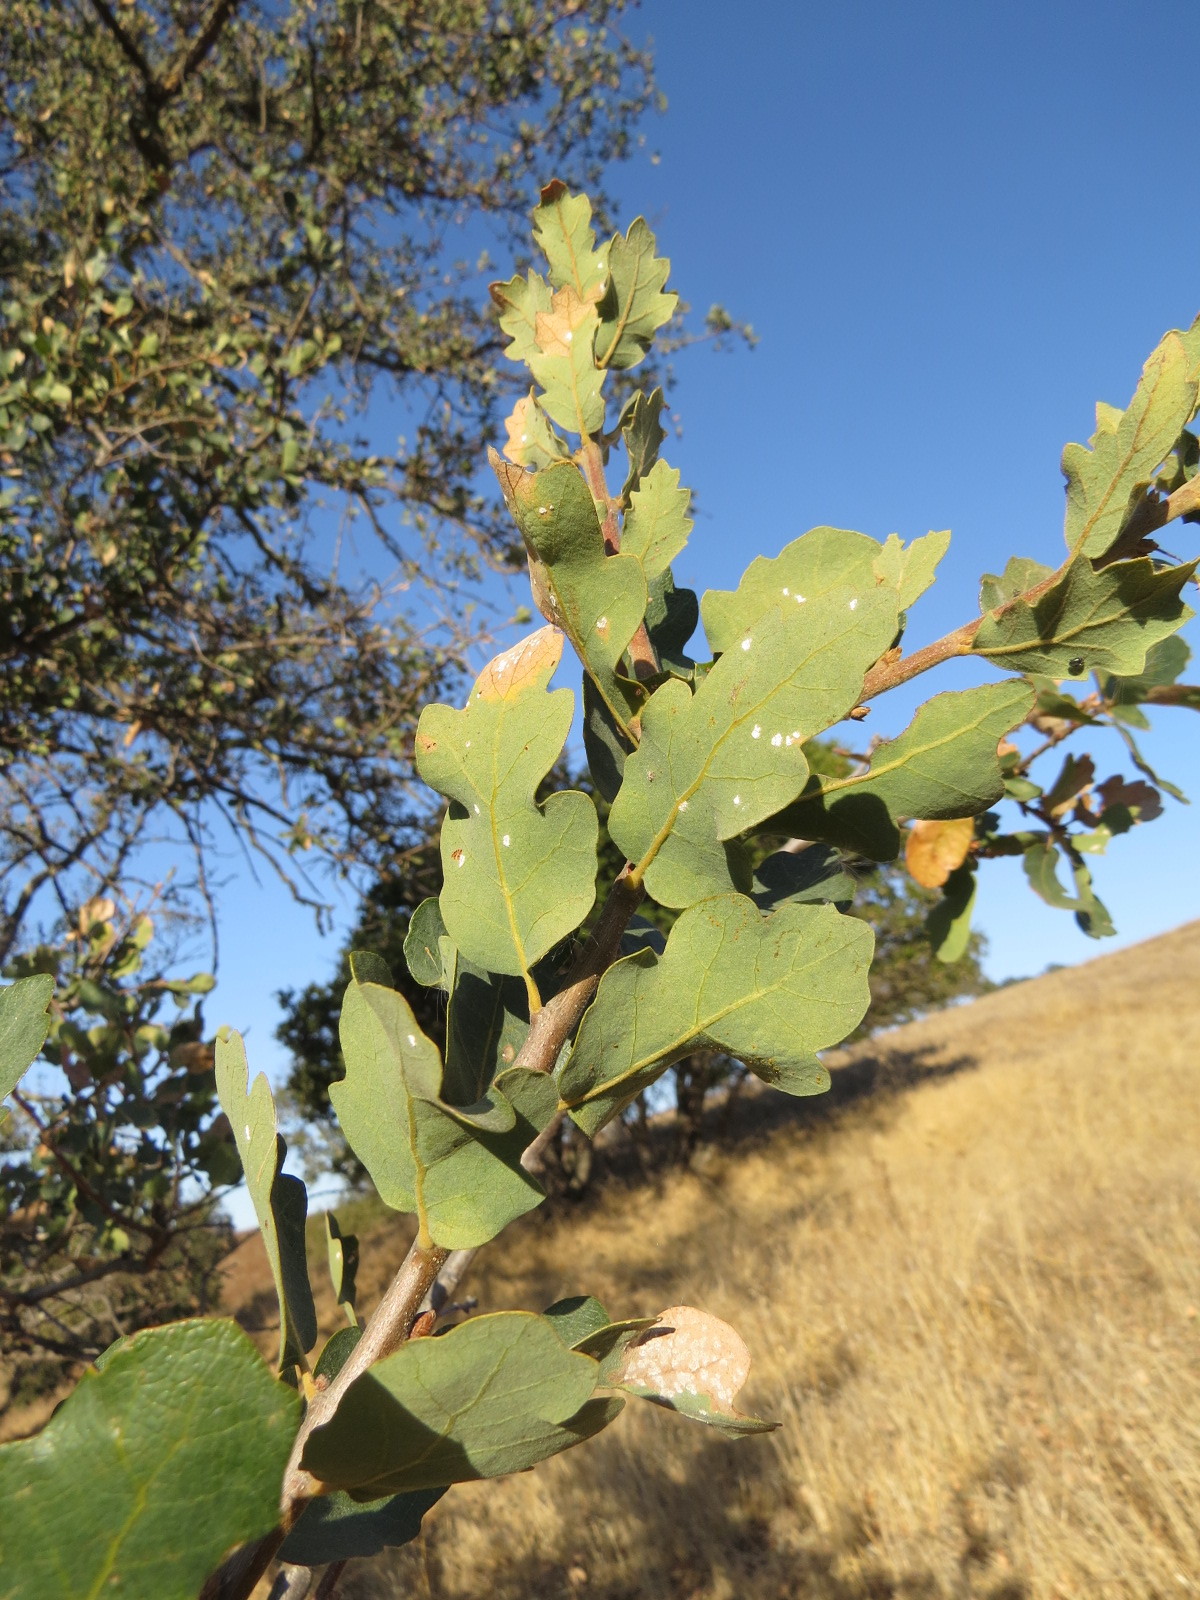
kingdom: Plantae
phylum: Tracheophyta
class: Magnoliopsida
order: Fagales
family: Fagaceae
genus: Quercus
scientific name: Quercus douglasii
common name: Blue oak
